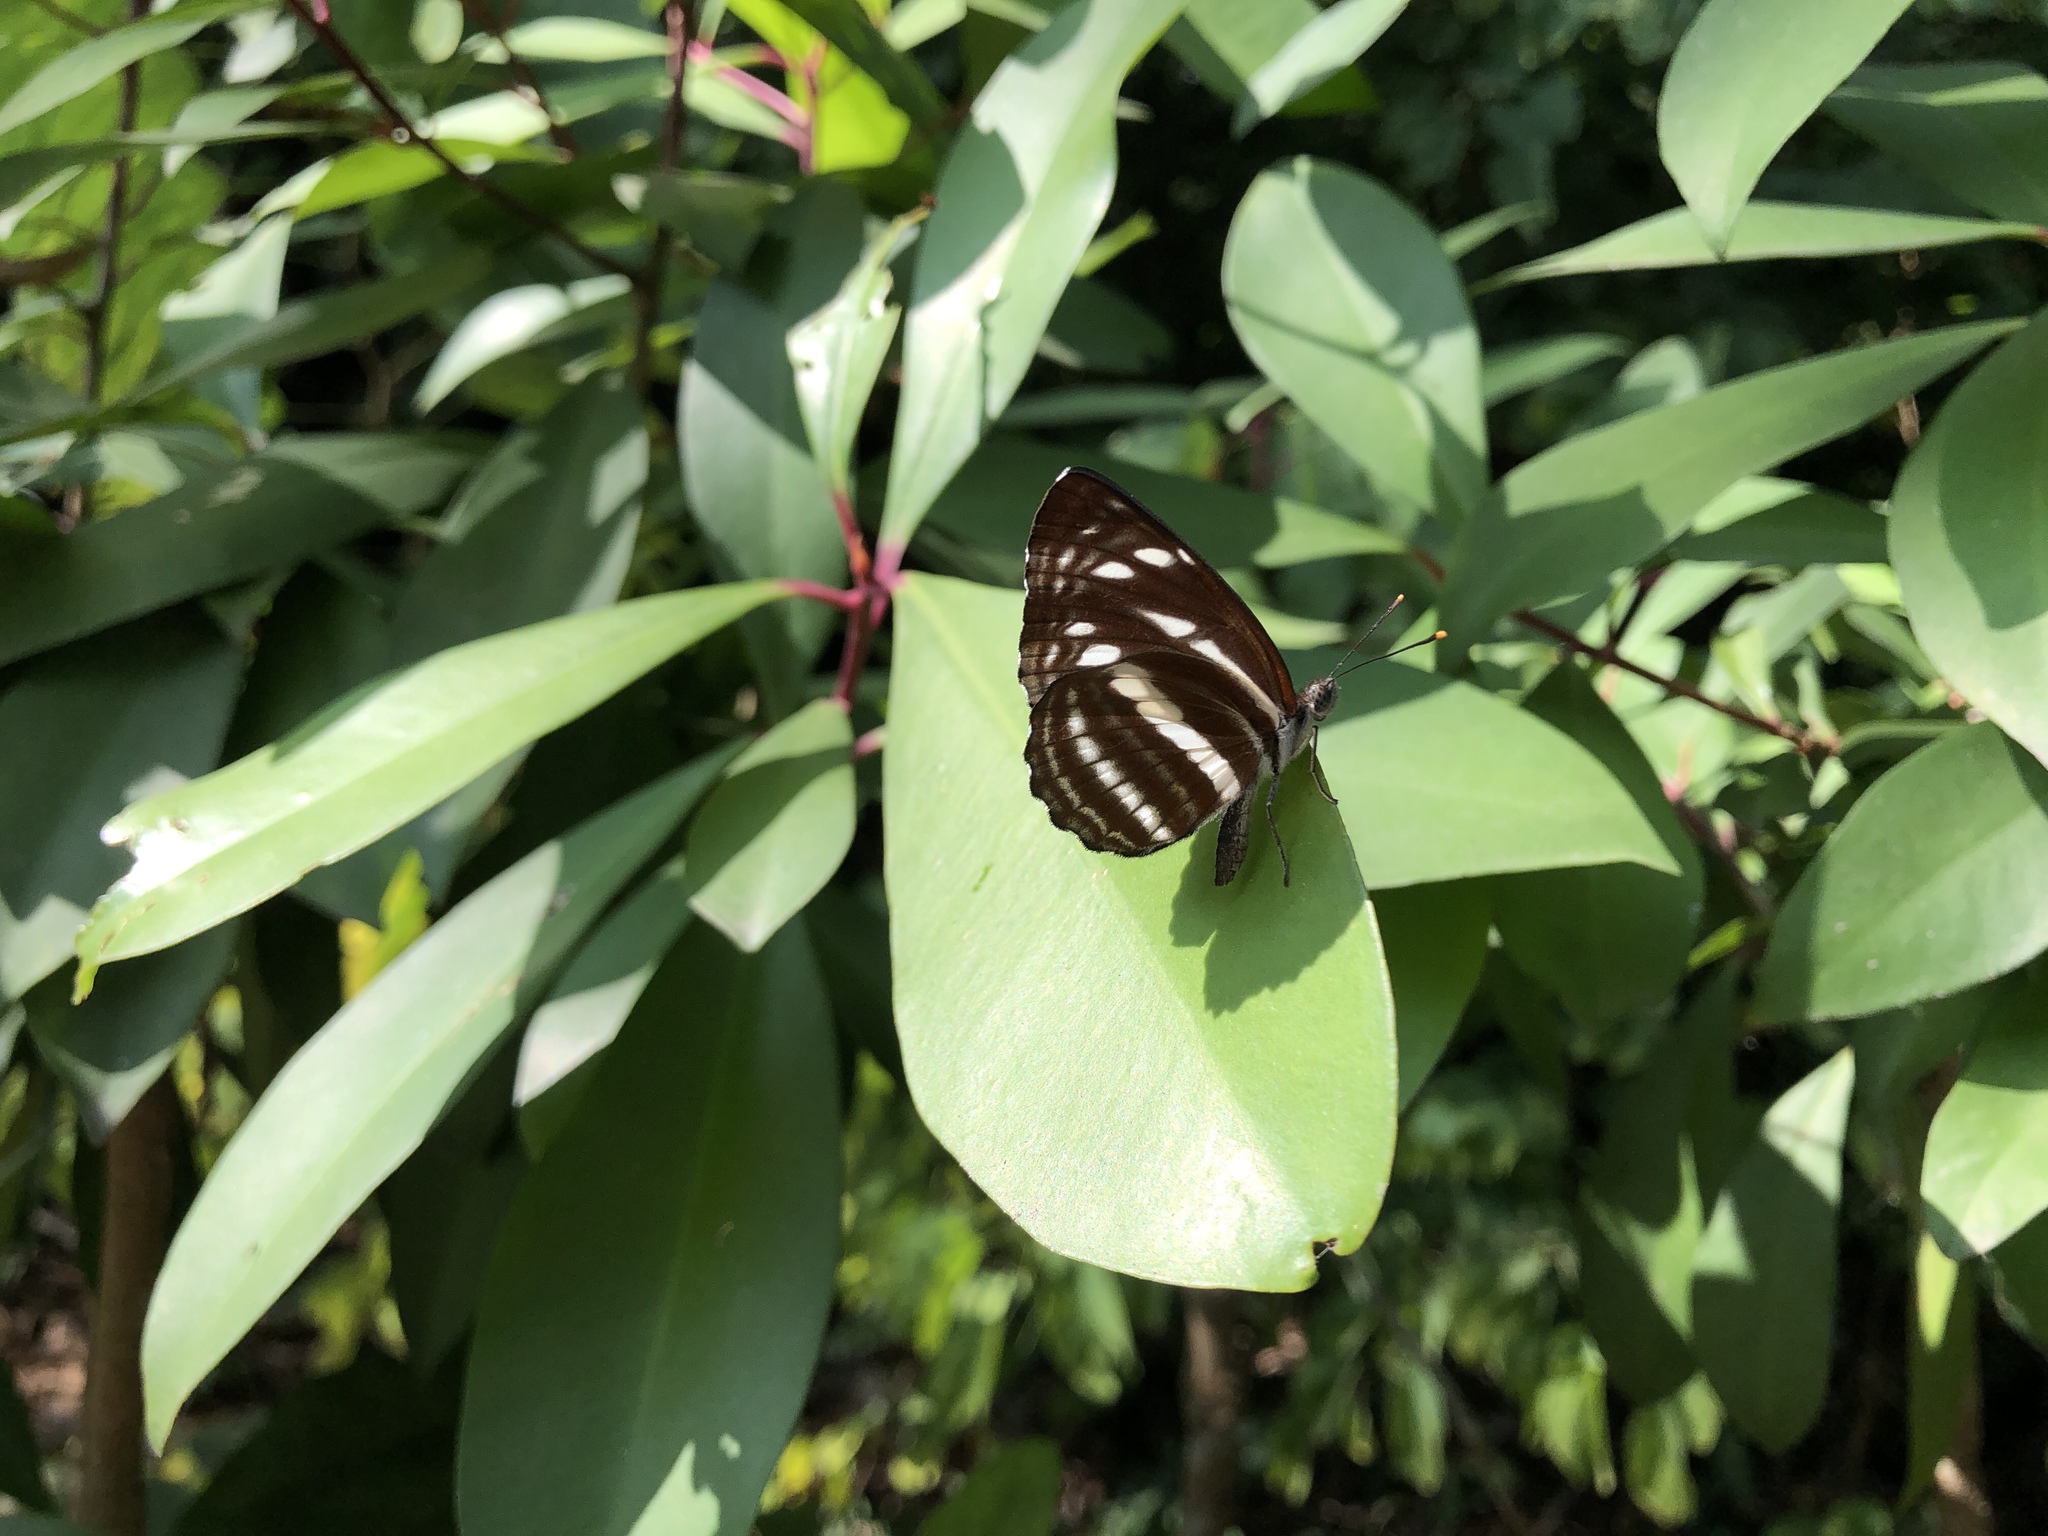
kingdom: Animalia
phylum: Arthropoda
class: Insecta
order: Lepidoptera
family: Nymphalidae
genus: Neptis
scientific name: Neptis nata
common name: Sullied brown sailer
